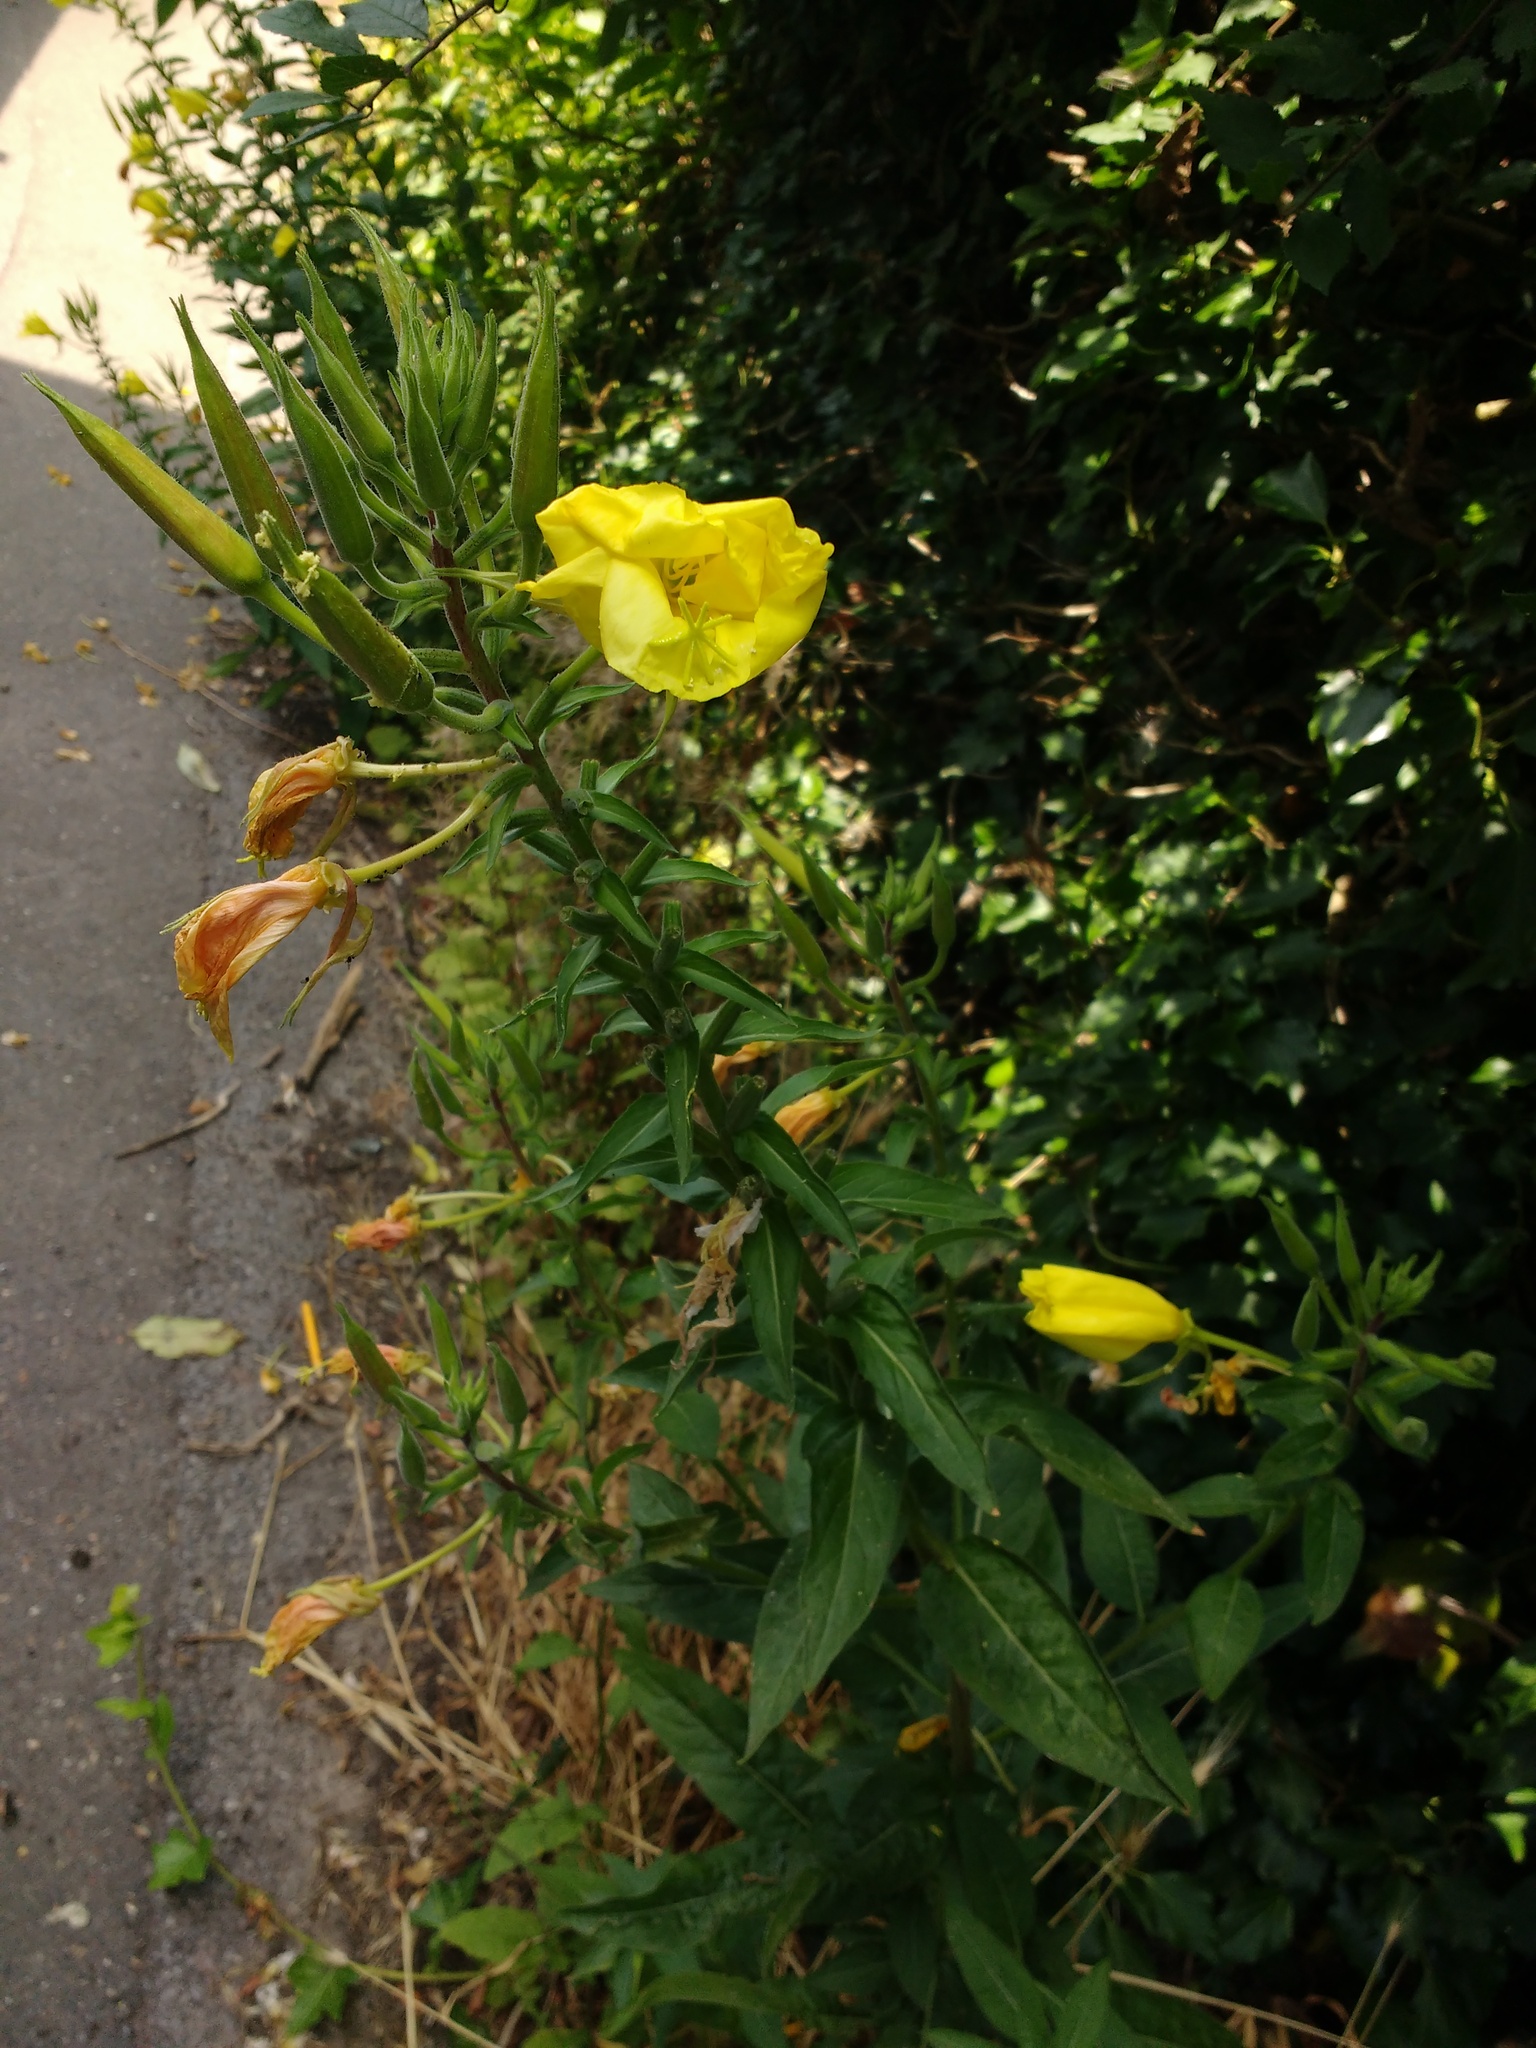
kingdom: Plantae
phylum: Tracheophyta
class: Magnoliopsida
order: Myrtales
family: Onagraceae
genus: Oenothera
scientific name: Oenothera glazioviana
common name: Large-flowered evening-primrose
